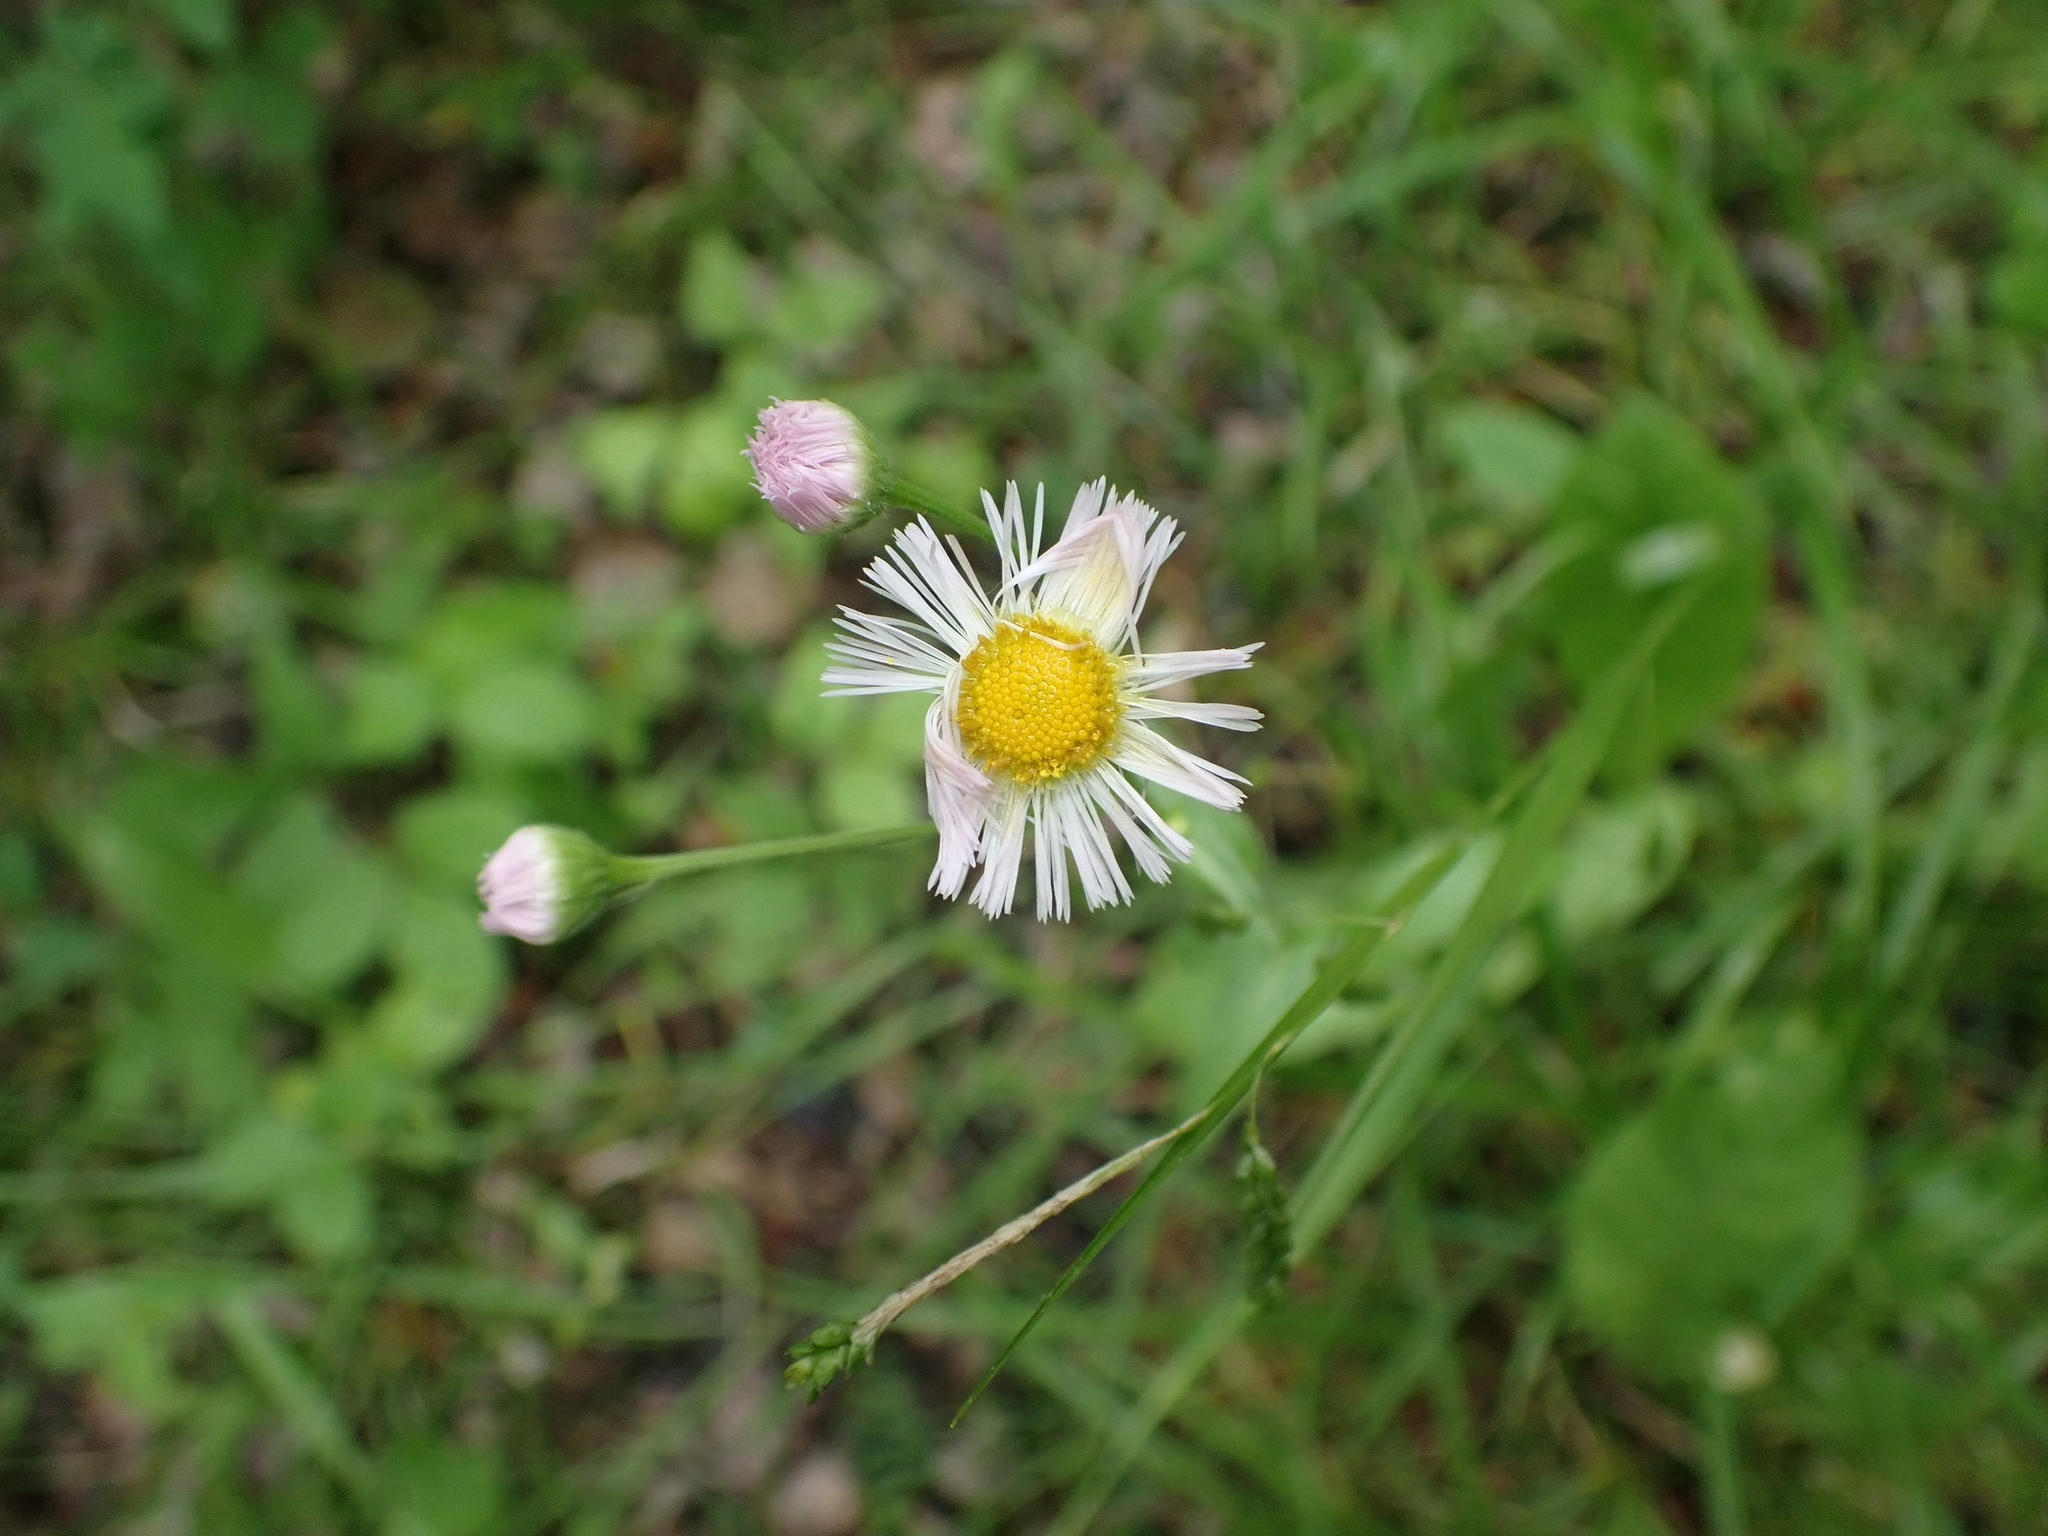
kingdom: Plantae
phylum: Tracheophyta
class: Magnoliopsida
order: Asterales
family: Asteraceae
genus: Erigeron
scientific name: Erigeron philadelphicus
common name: Robin's-plantain
